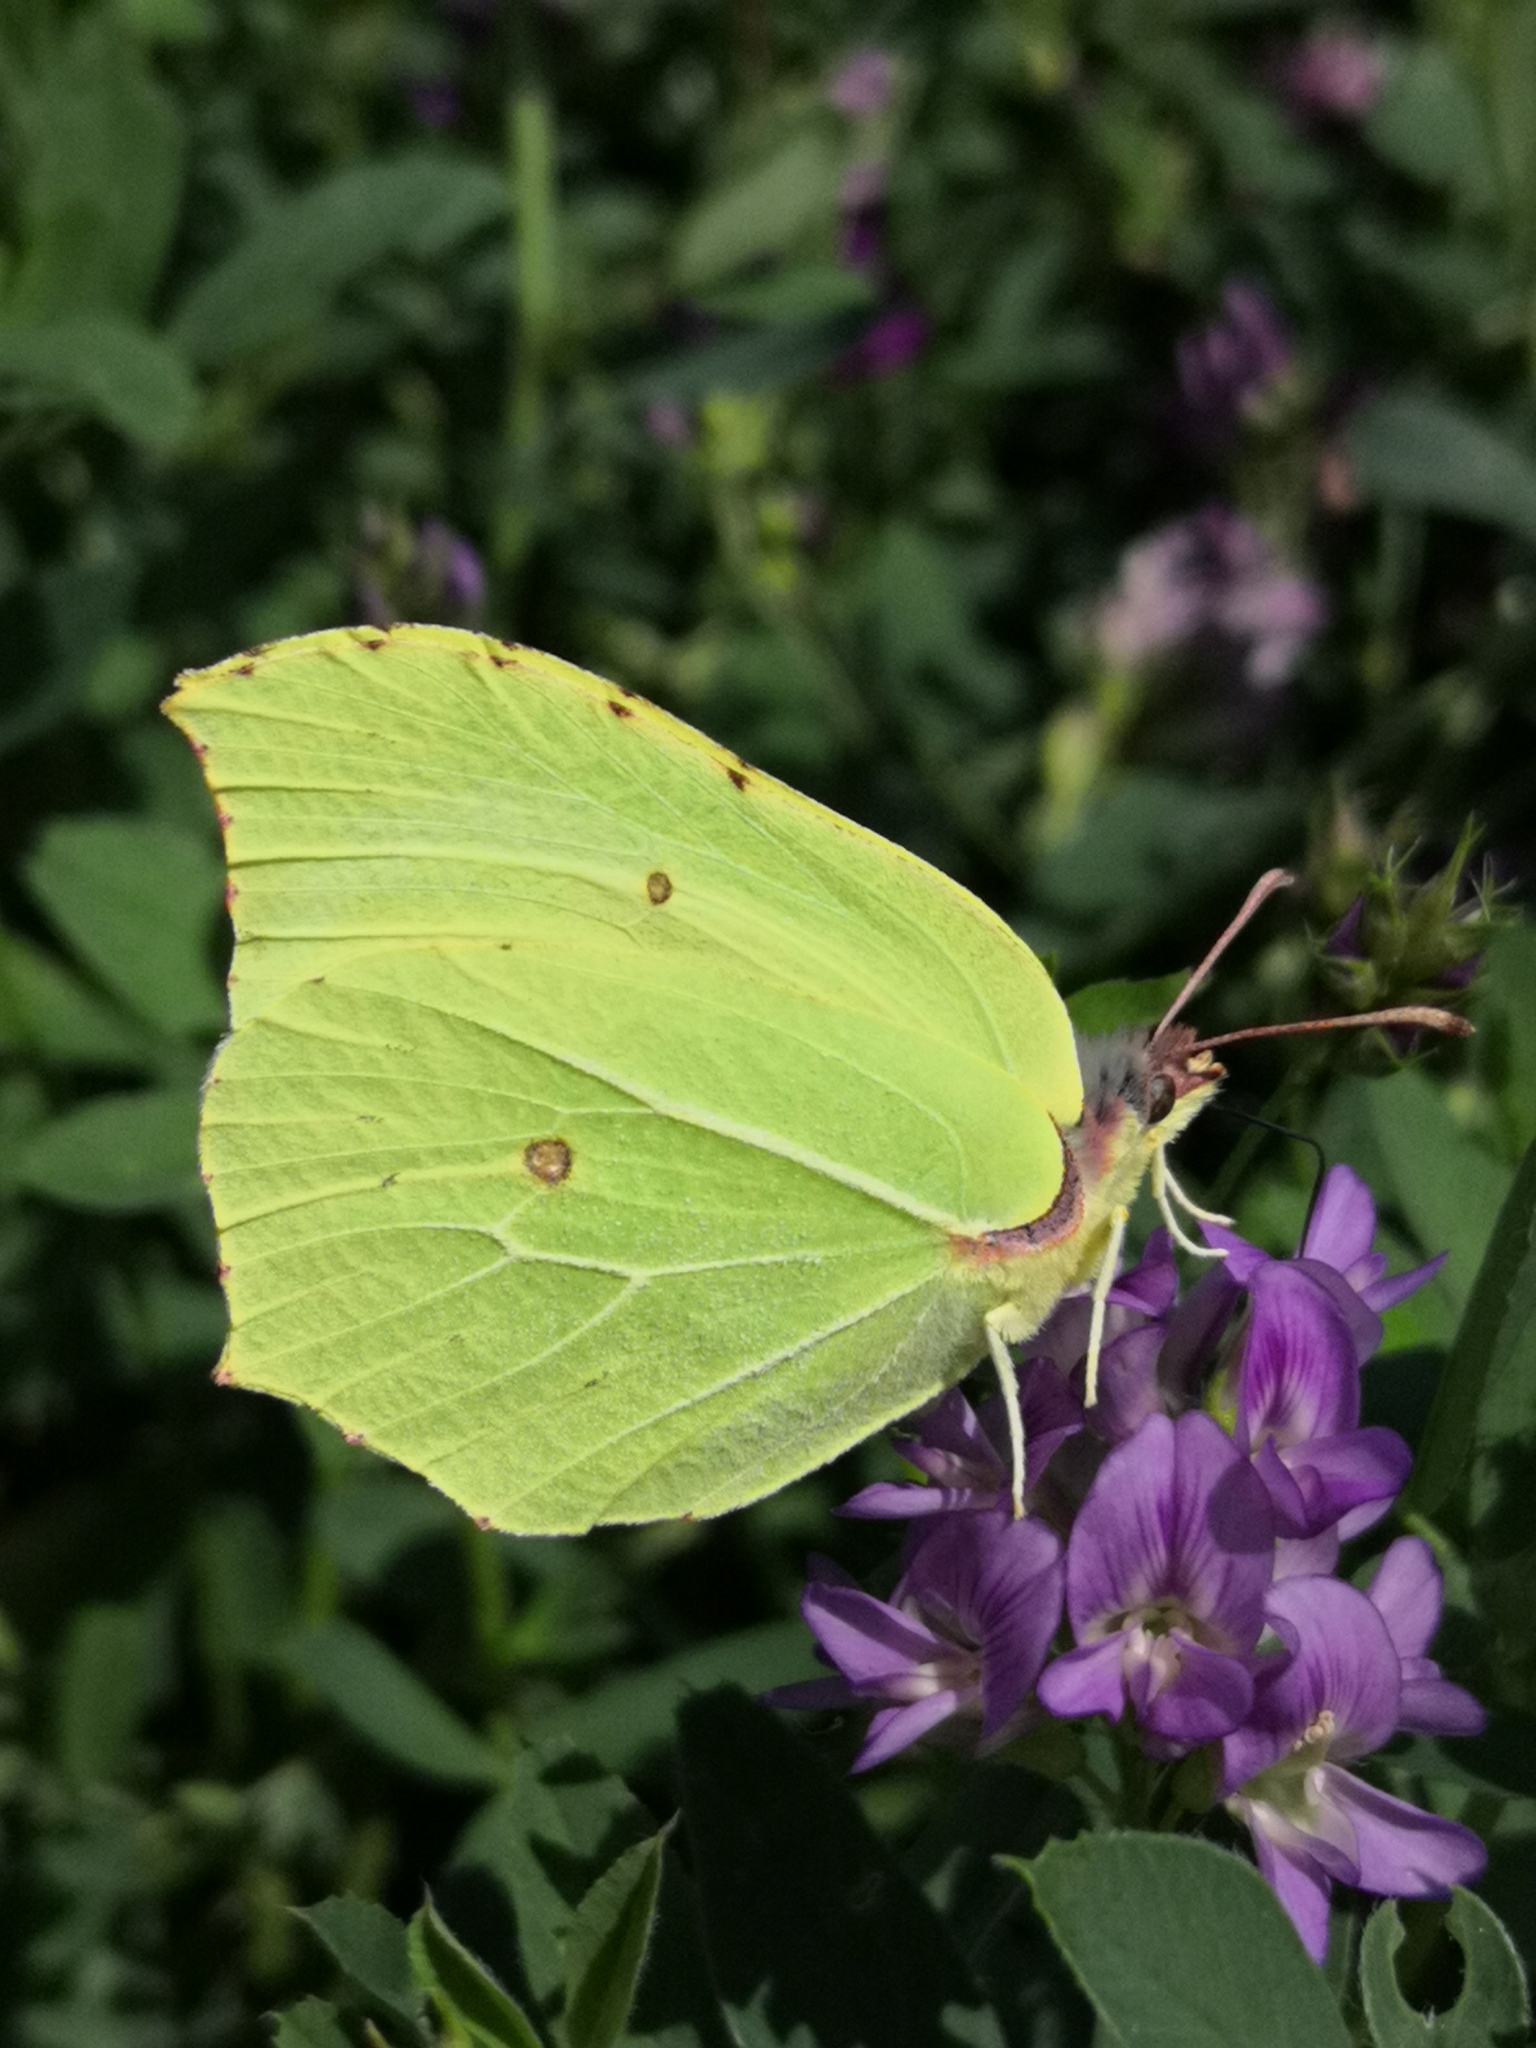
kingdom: Animalia
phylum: Arthropoda
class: Insecta
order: Lepidoptera
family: Pieridae
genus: Gonepteryx
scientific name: Gonepteryx rhamni
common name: Brimstone
